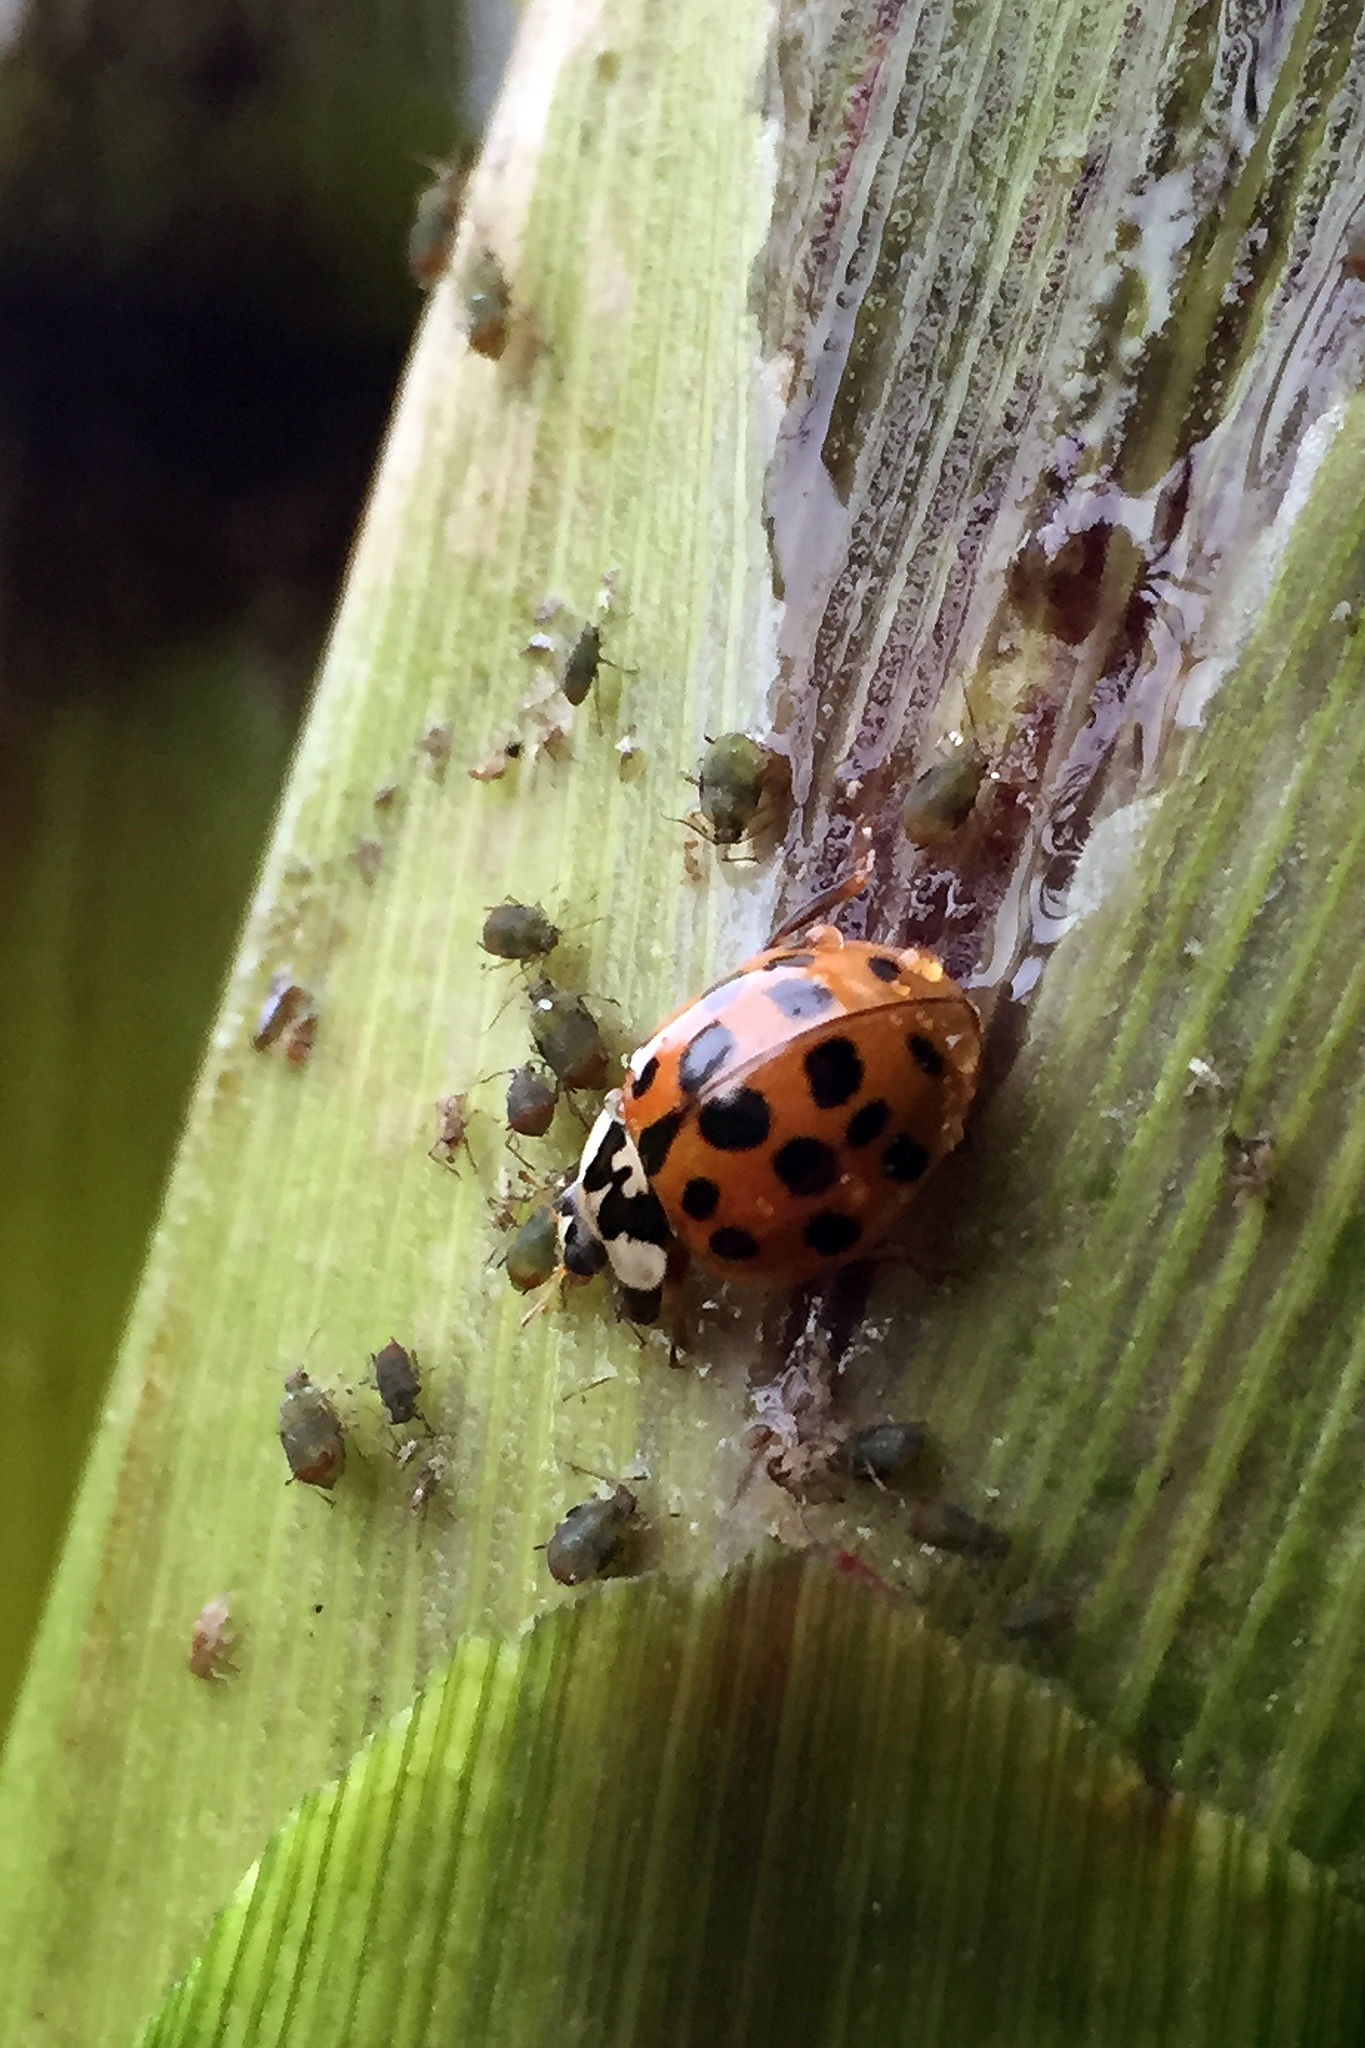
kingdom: Animalia
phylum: Arthropoda
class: Insecta
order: Coleoptera
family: Coccinellidae
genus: Harmonia
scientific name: Harmonia axyridis
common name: Harlequin ladybird
